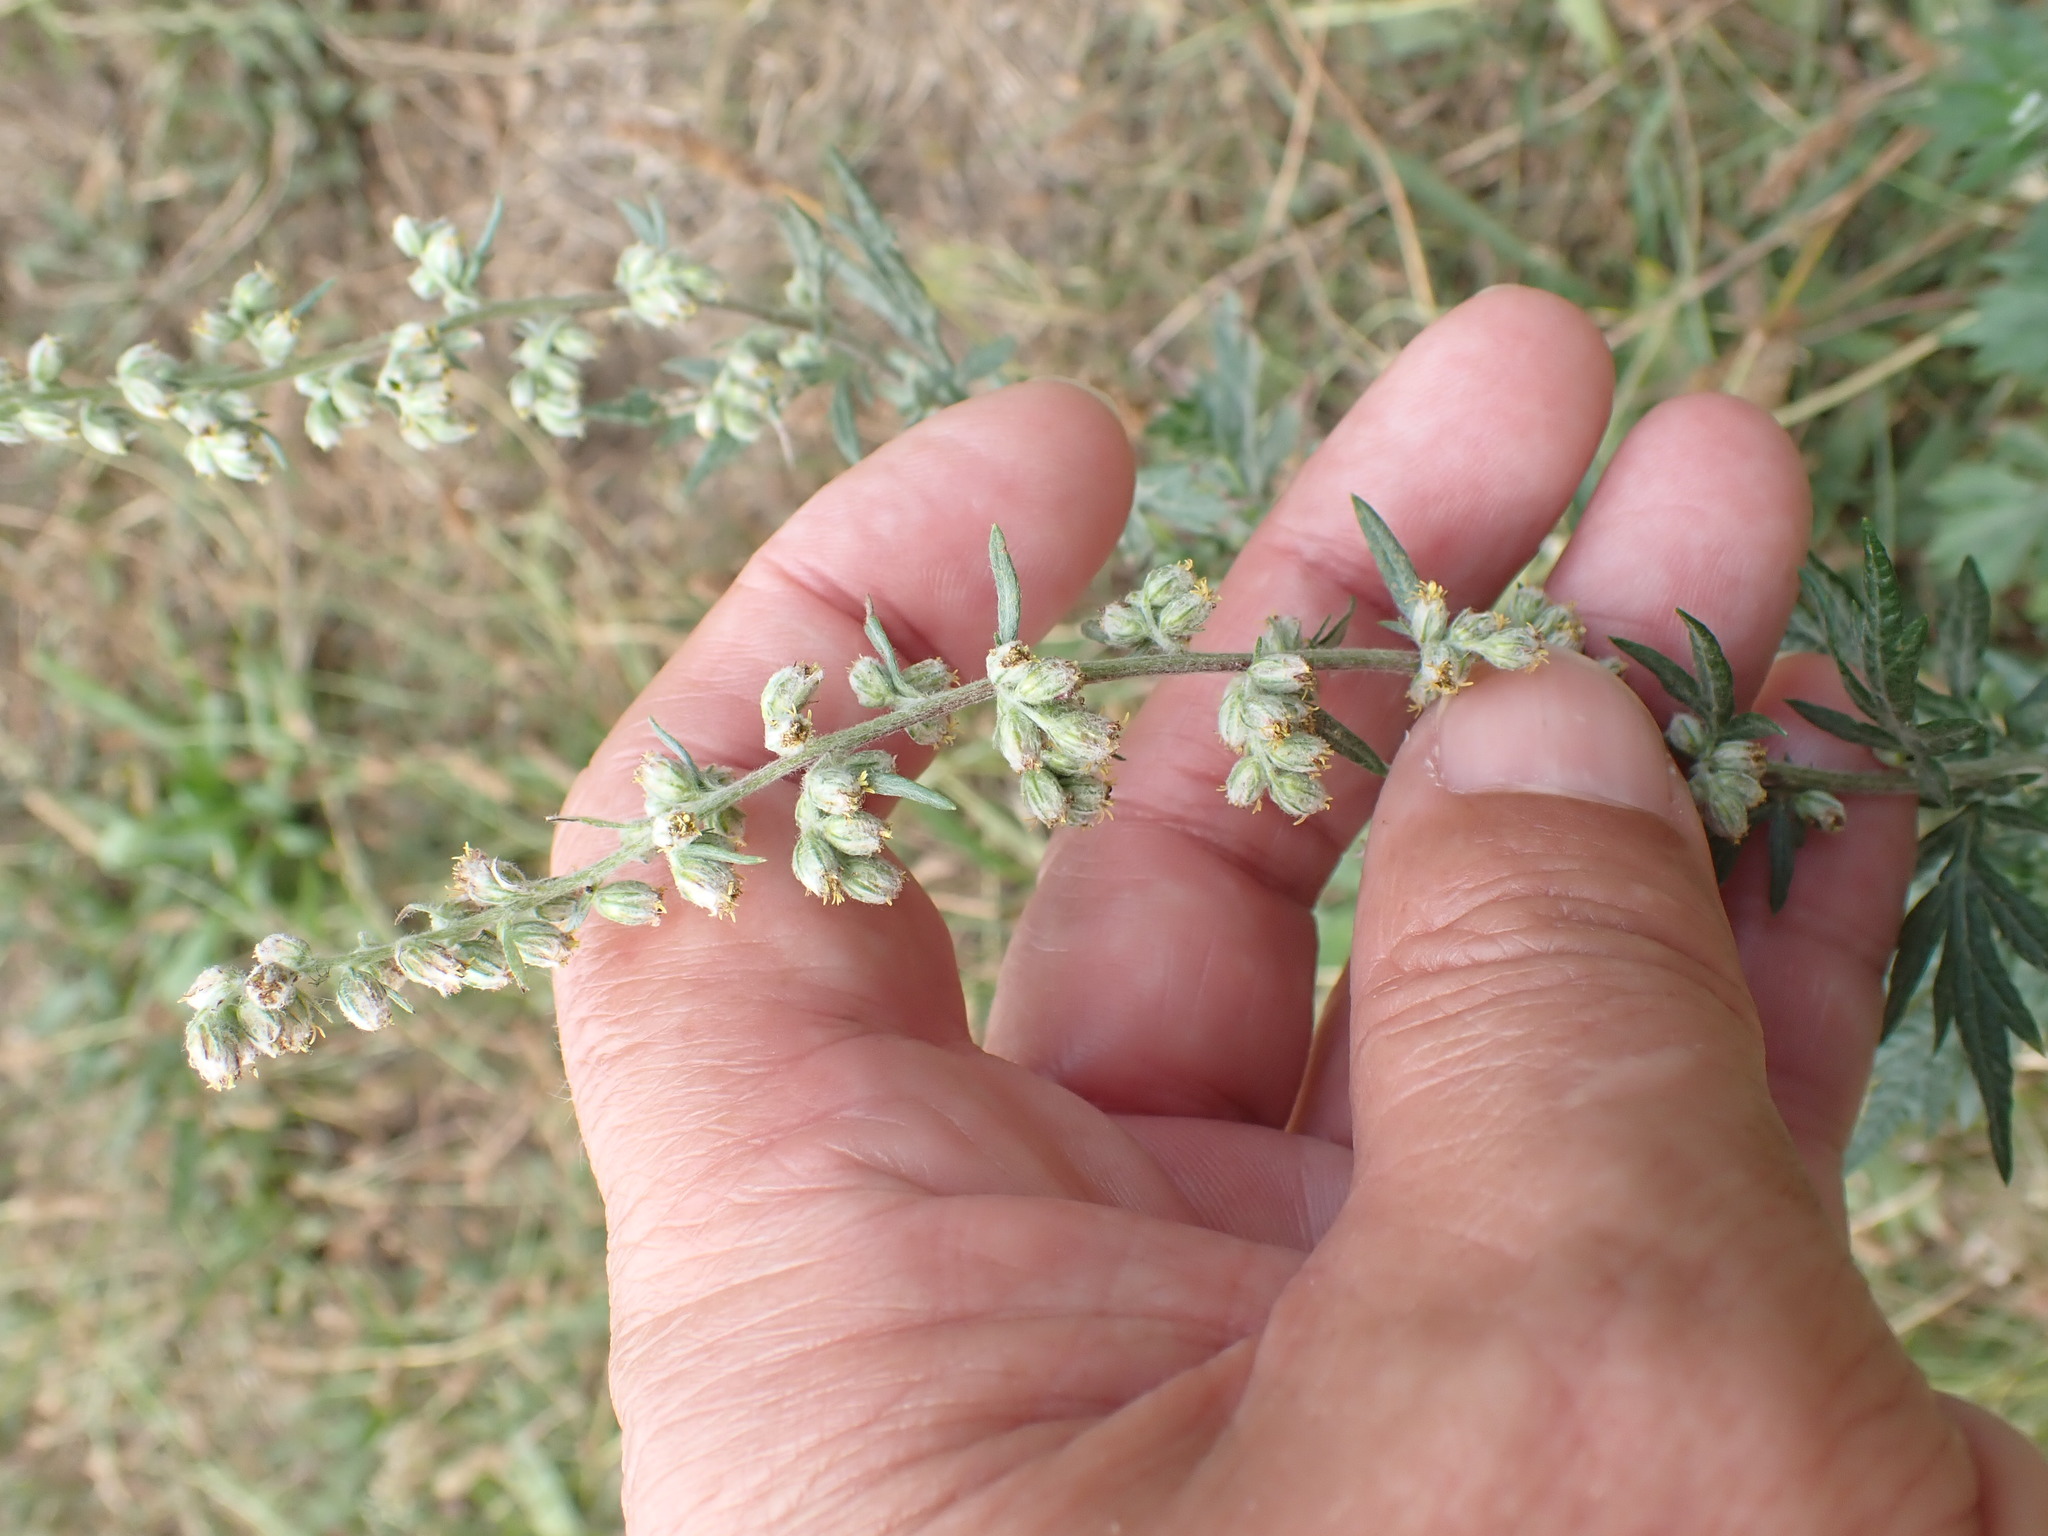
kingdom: Plantae
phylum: Tracheophyta
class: Magnoliopsida
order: Asterales
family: Asteraceae
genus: Artemisia
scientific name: Artemisia vulgaris
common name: Mugwort
